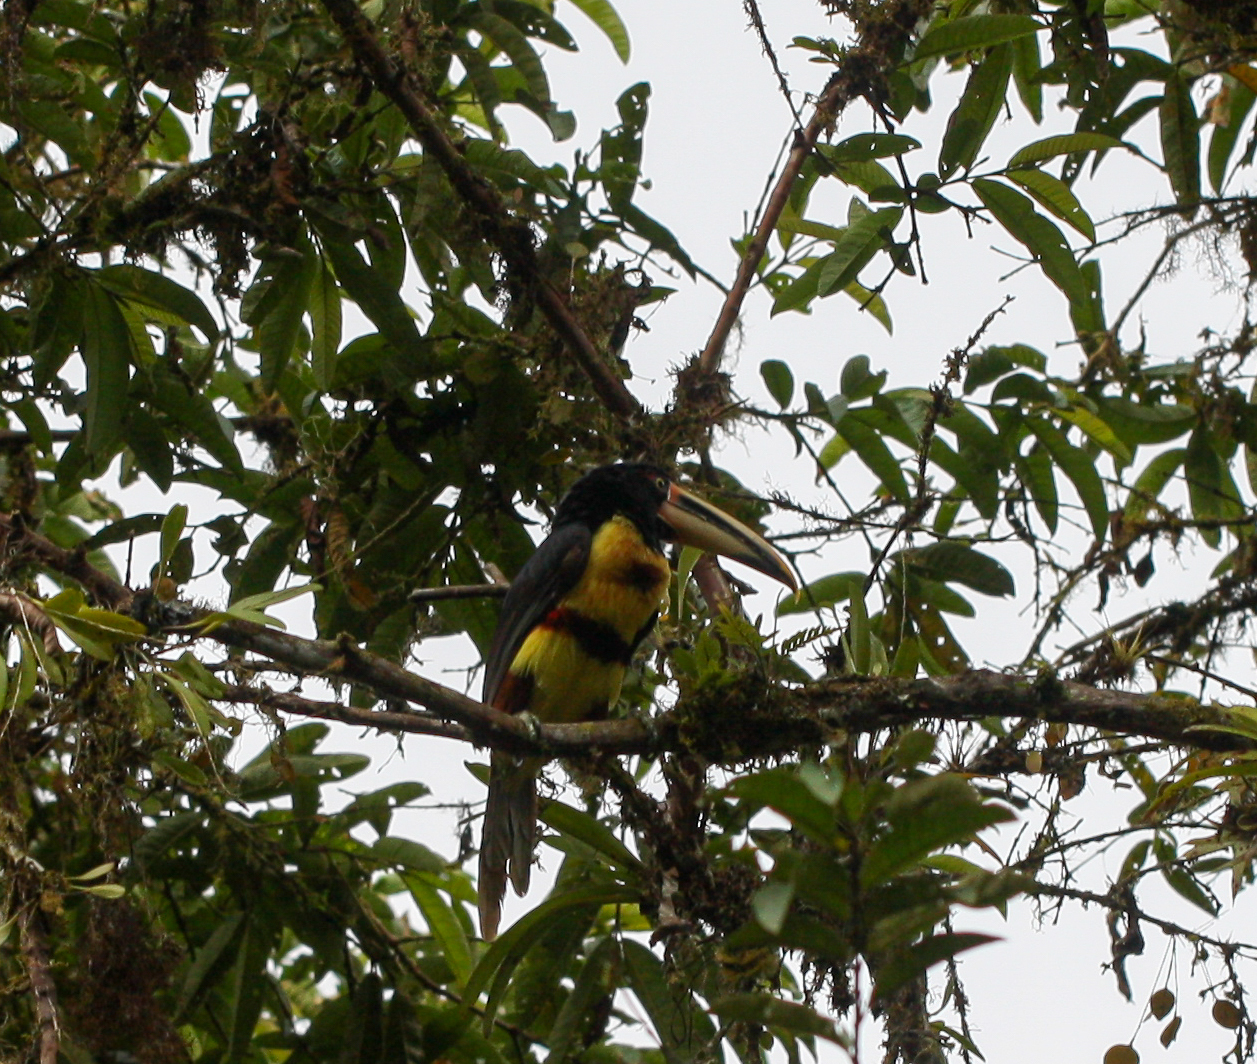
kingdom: Animalia
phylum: Chordata
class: Aves
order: Piciformes
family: Ramphastidae
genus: Pteroglossus
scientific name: Pteroglossus torquatus
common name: Collared aracari
